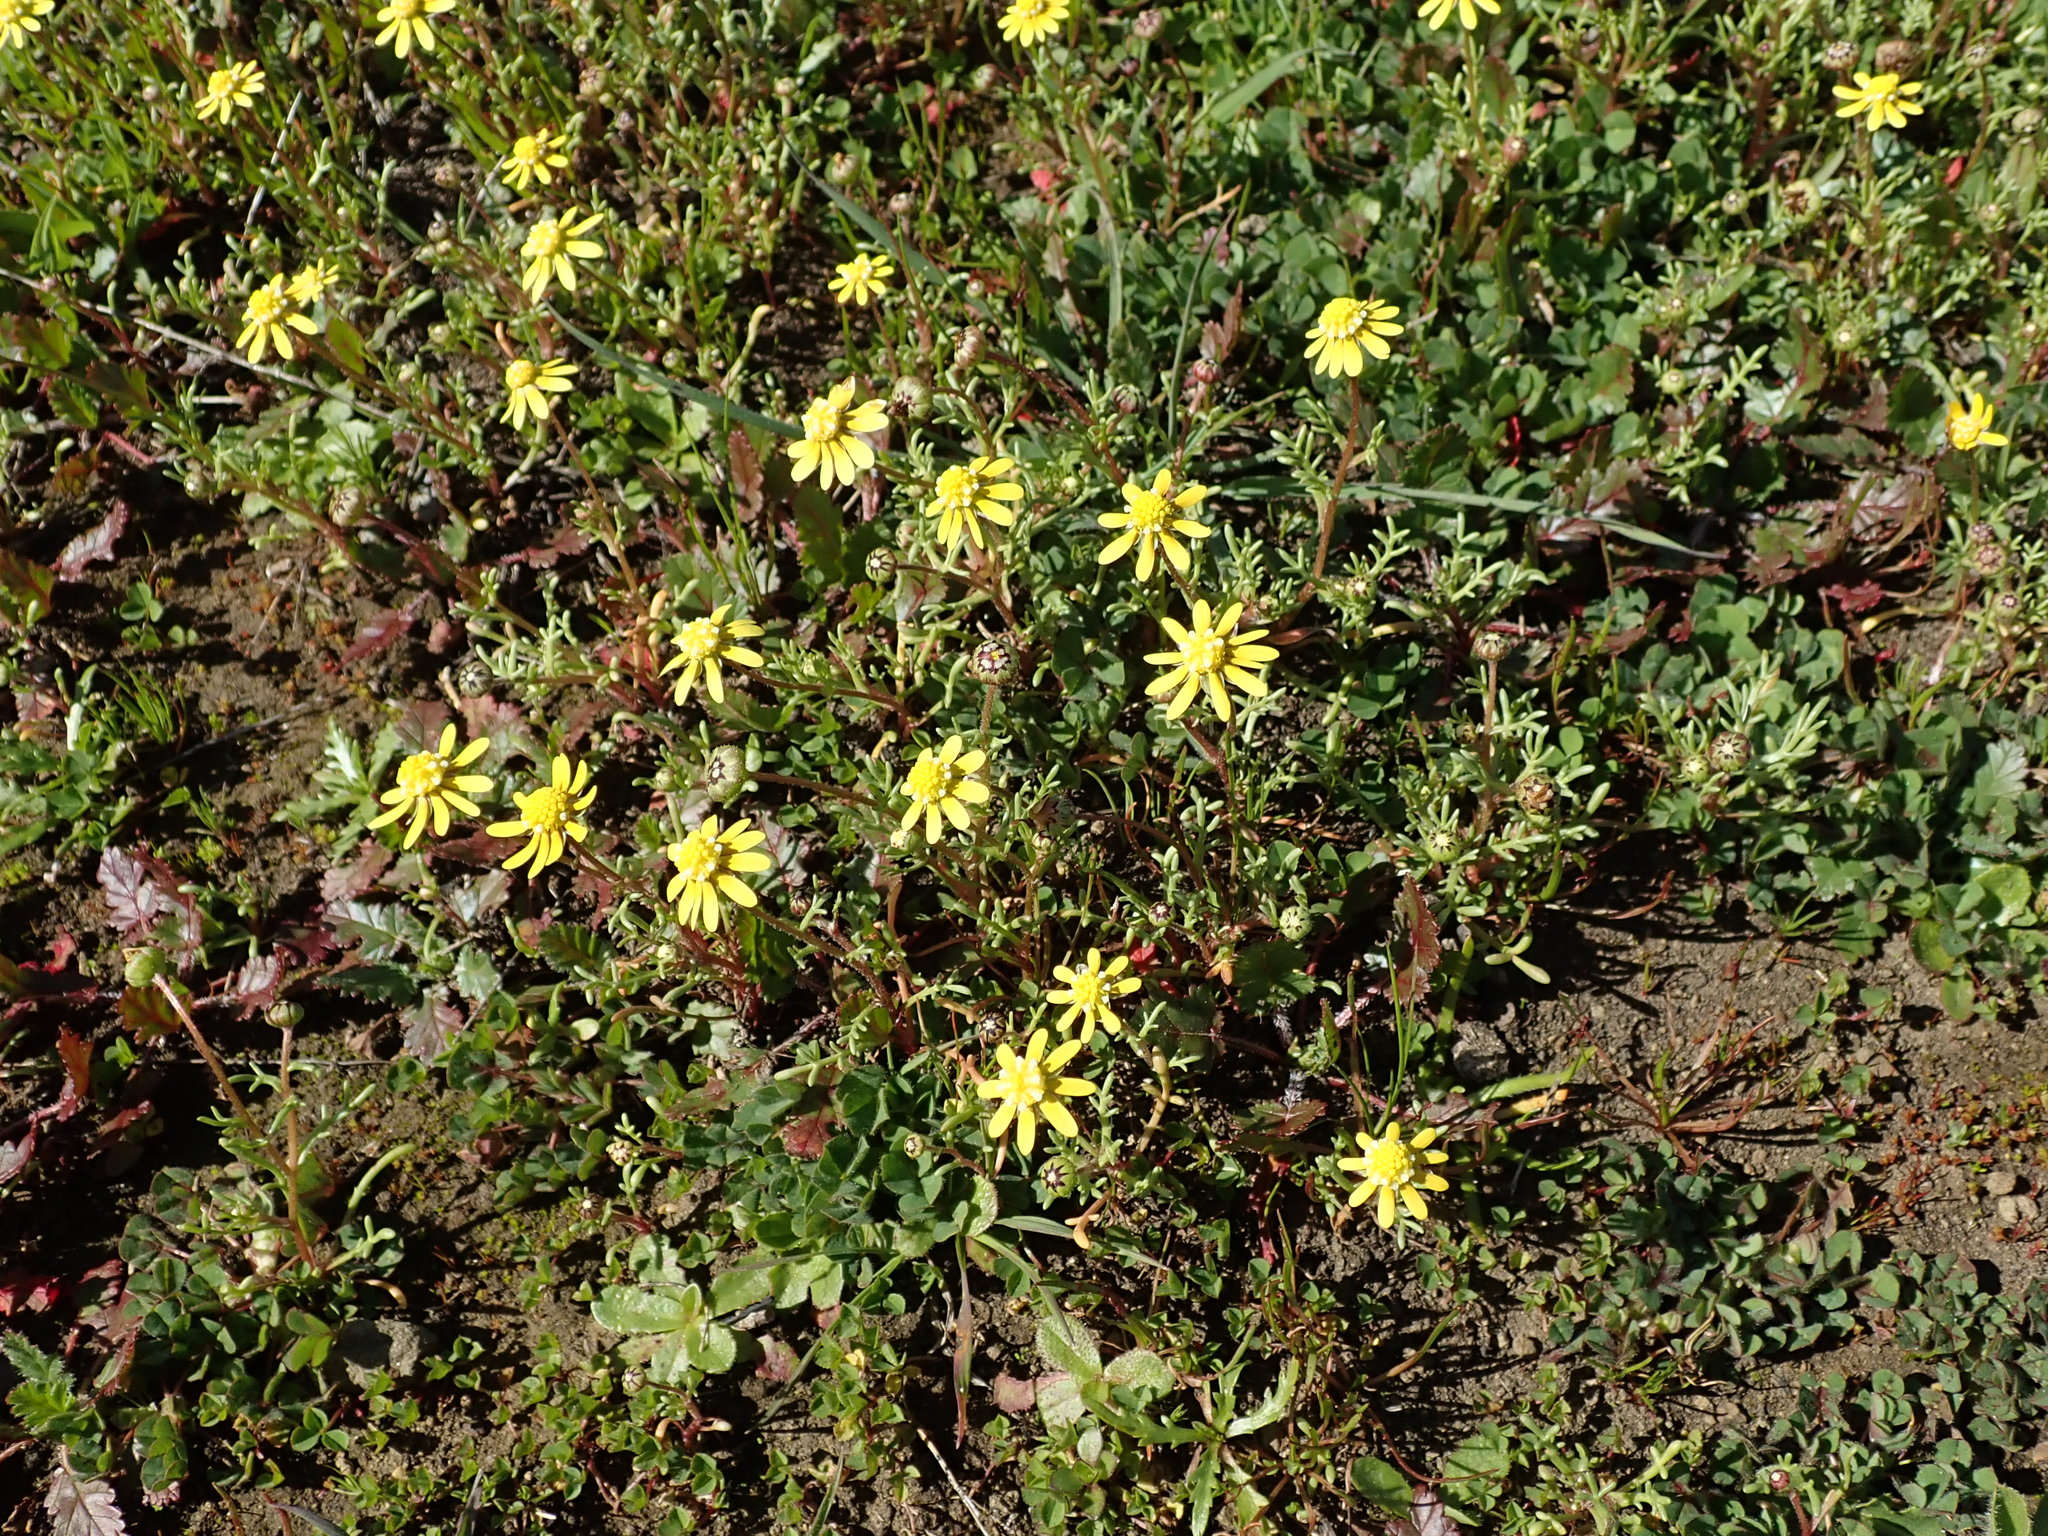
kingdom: Plantae
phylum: Tracheophyta
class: Magnoliopsida
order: Asterales
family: Asteraceae
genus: Blennosperma
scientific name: Blennosperma nanum
